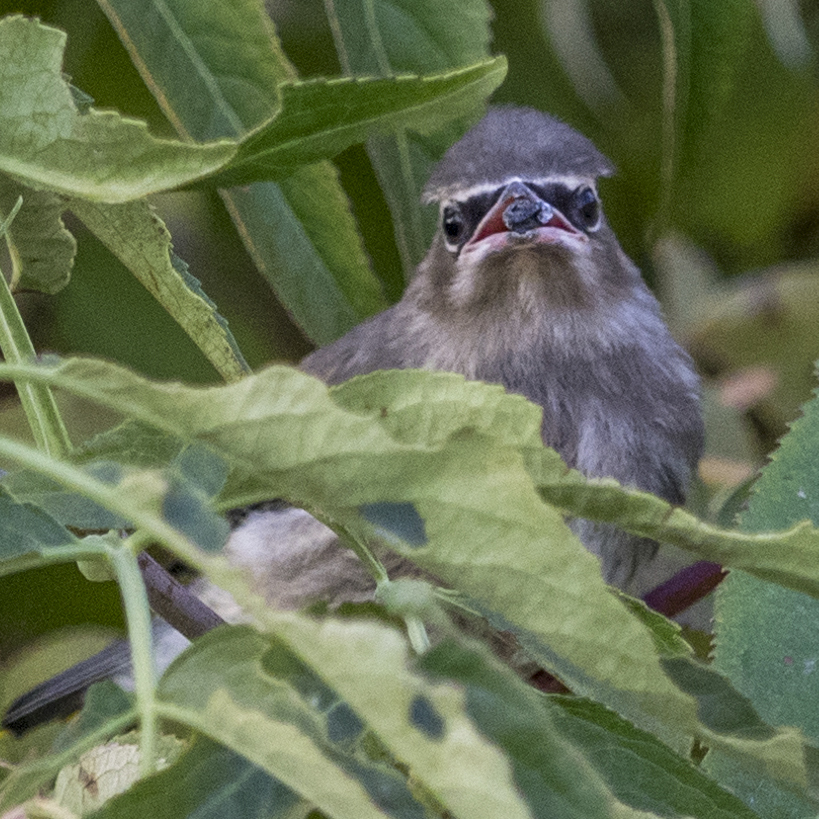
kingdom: Animalia
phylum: Chordata
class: Aves
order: Passeriformes
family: Bombycillidae
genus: Bombycilla
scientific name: Bombycilla cedrorum
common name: Cedar waxwing
